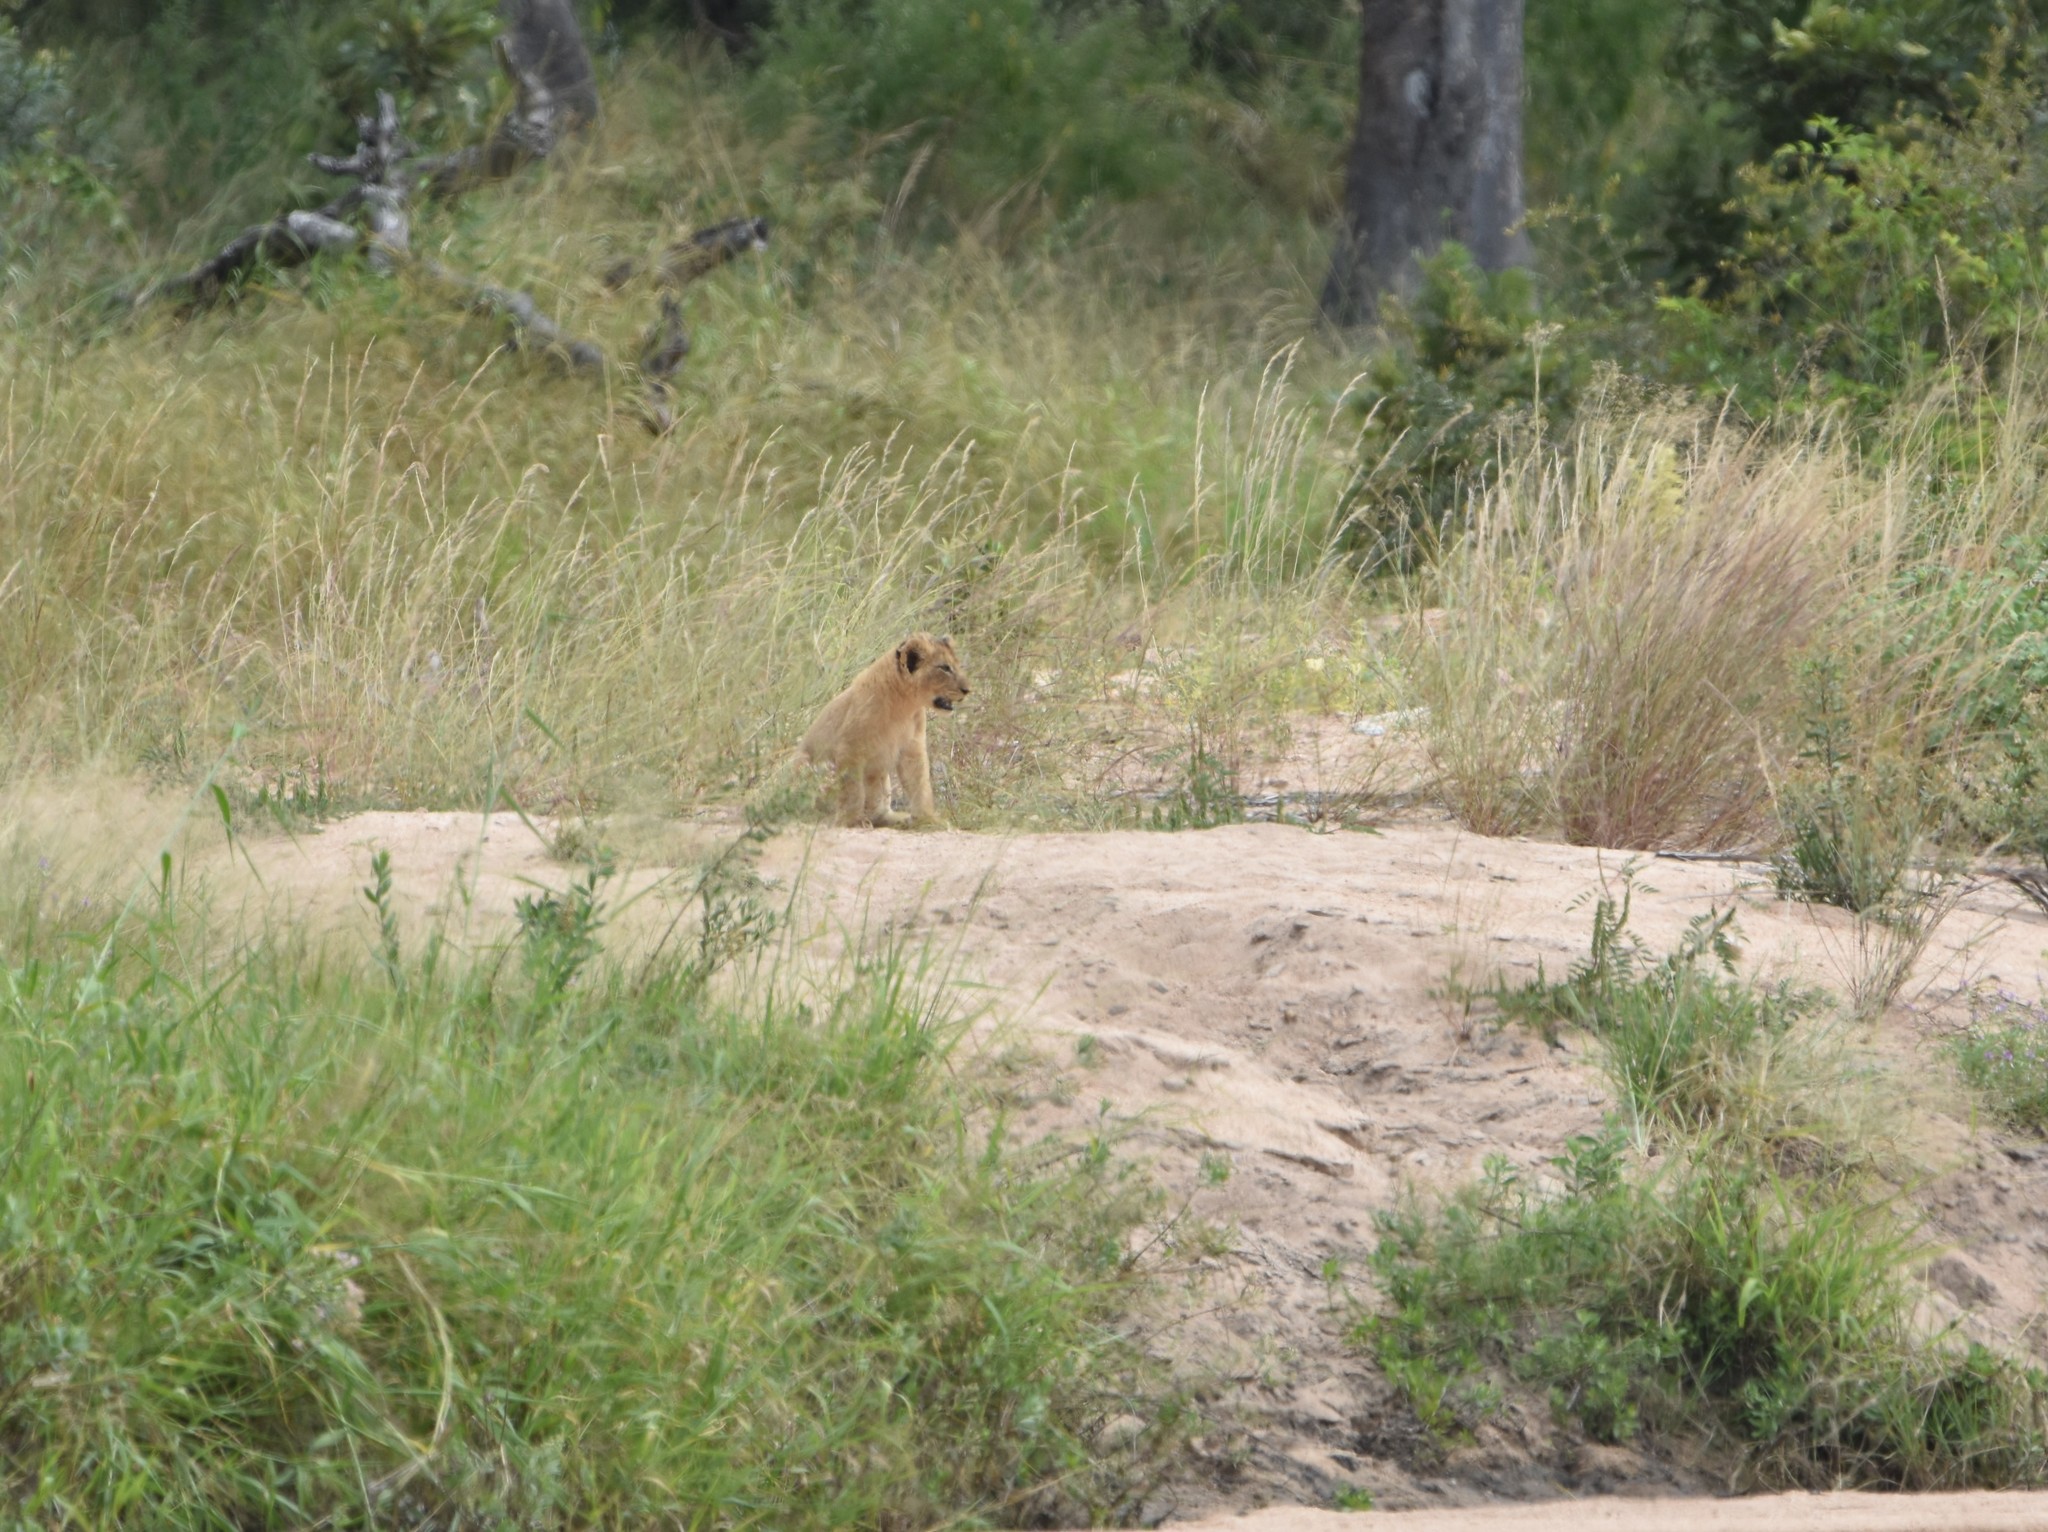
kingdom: Animalia
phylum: Chordata
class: Mammalia
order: Carnivora
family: Felidae
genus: Panthera
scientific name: Panthera leo
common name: Lion
